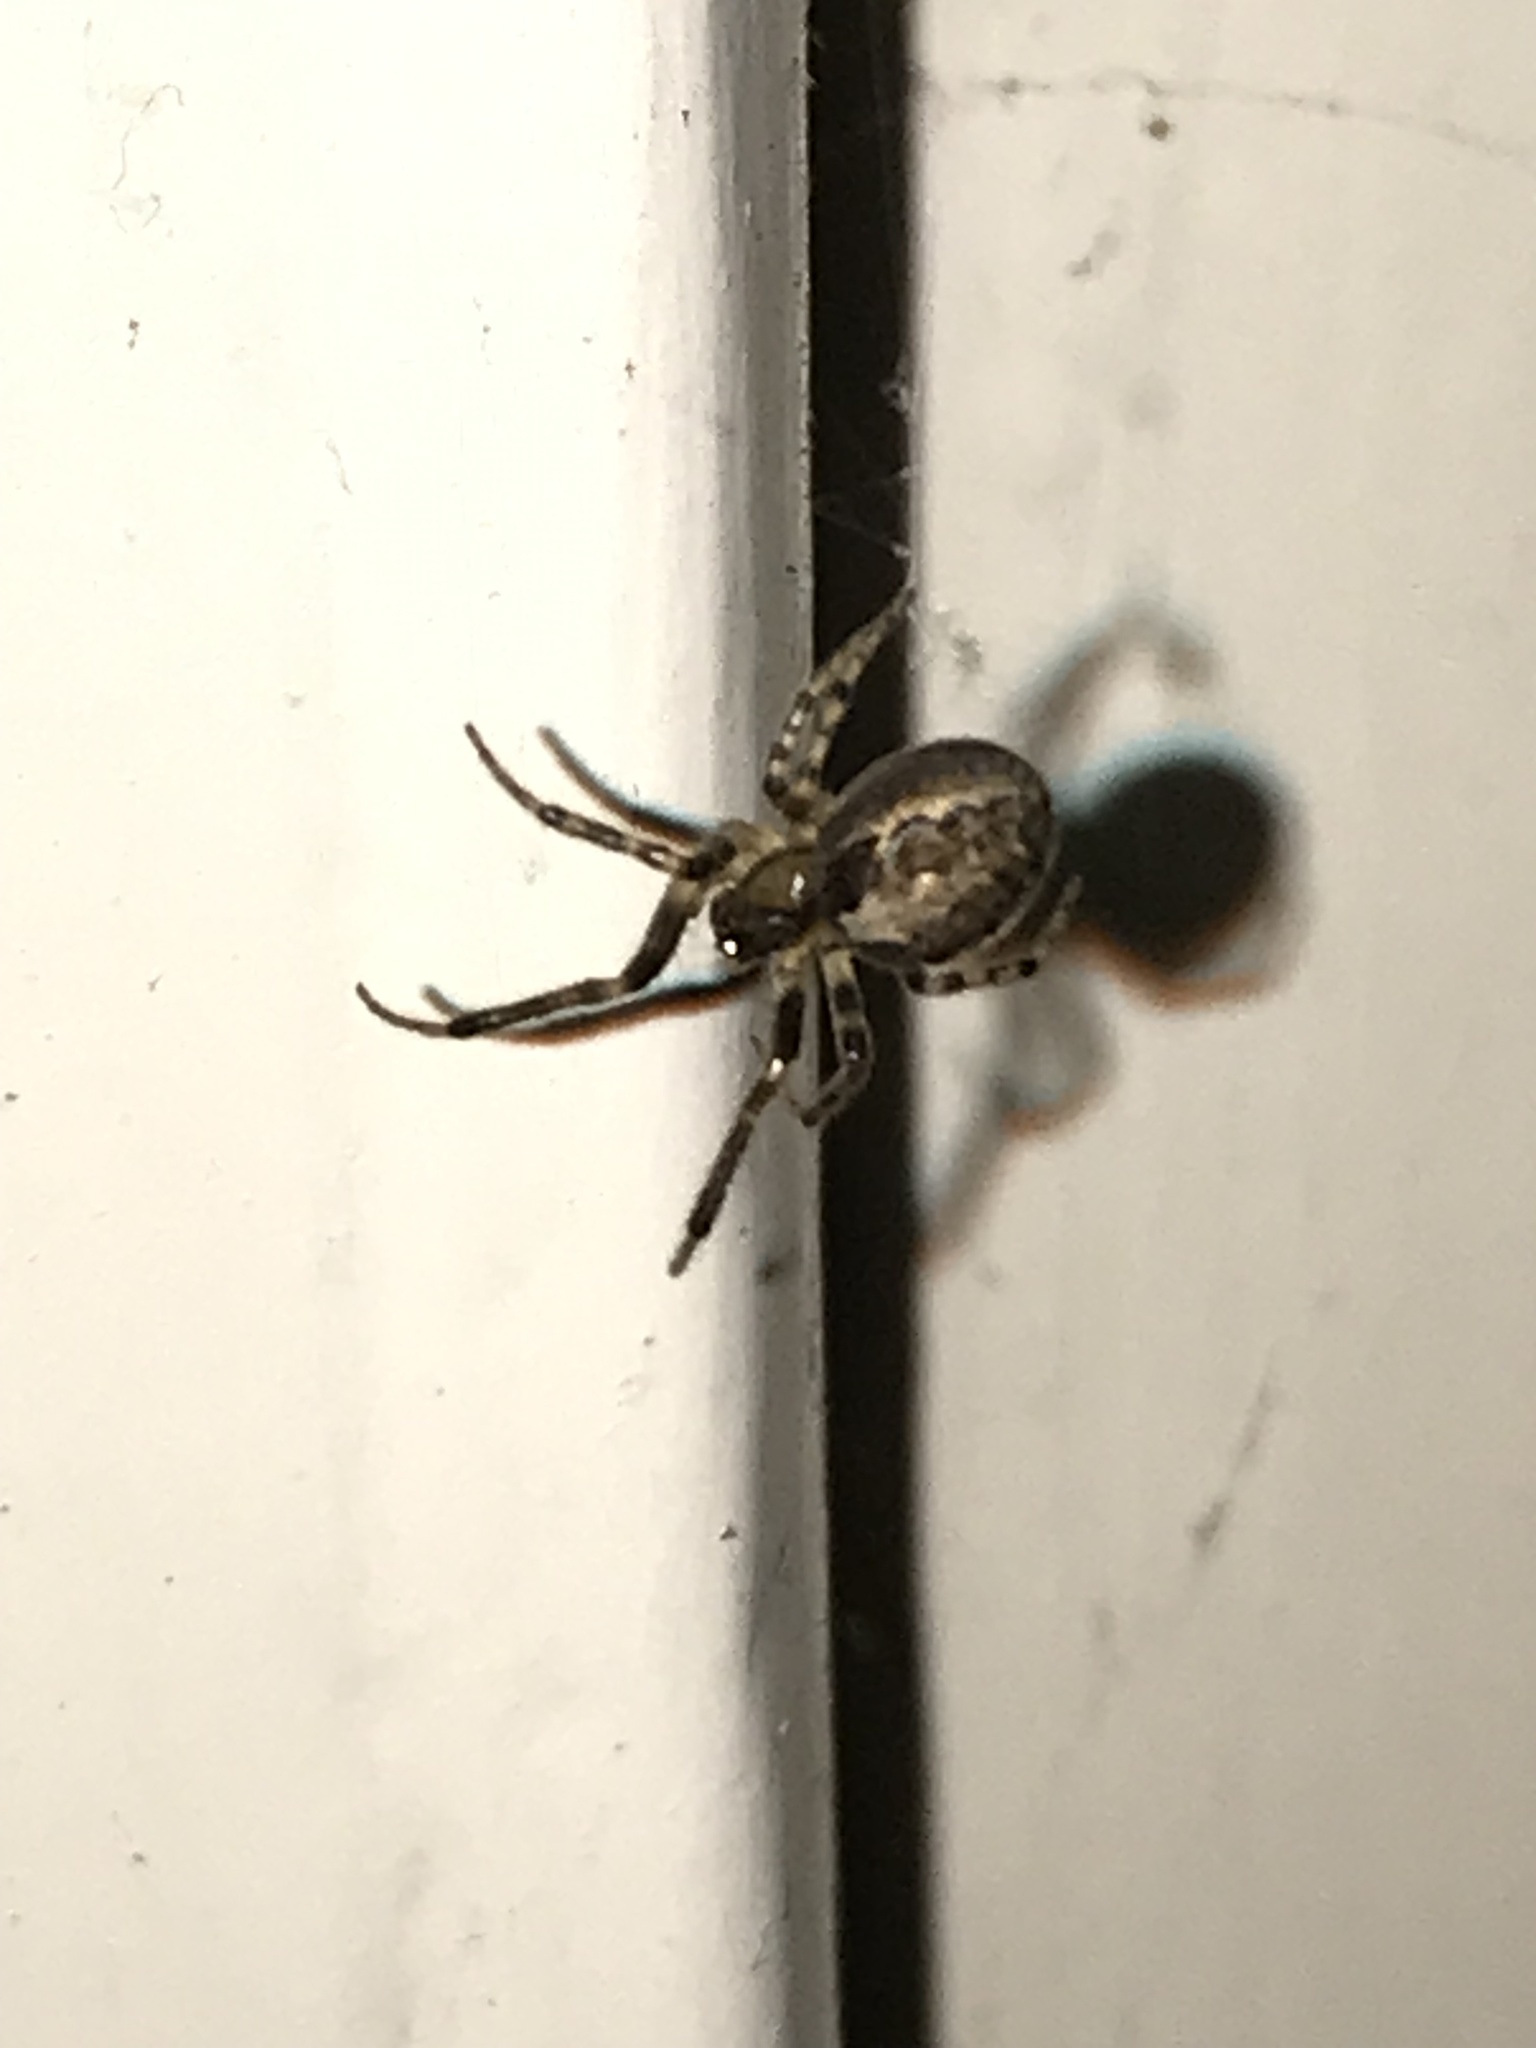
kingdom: Animalia
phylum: Arthropoda
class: Arachnida
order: Araneae
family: Araneidae
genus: Zygiella
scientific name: Zygiella x-notata
